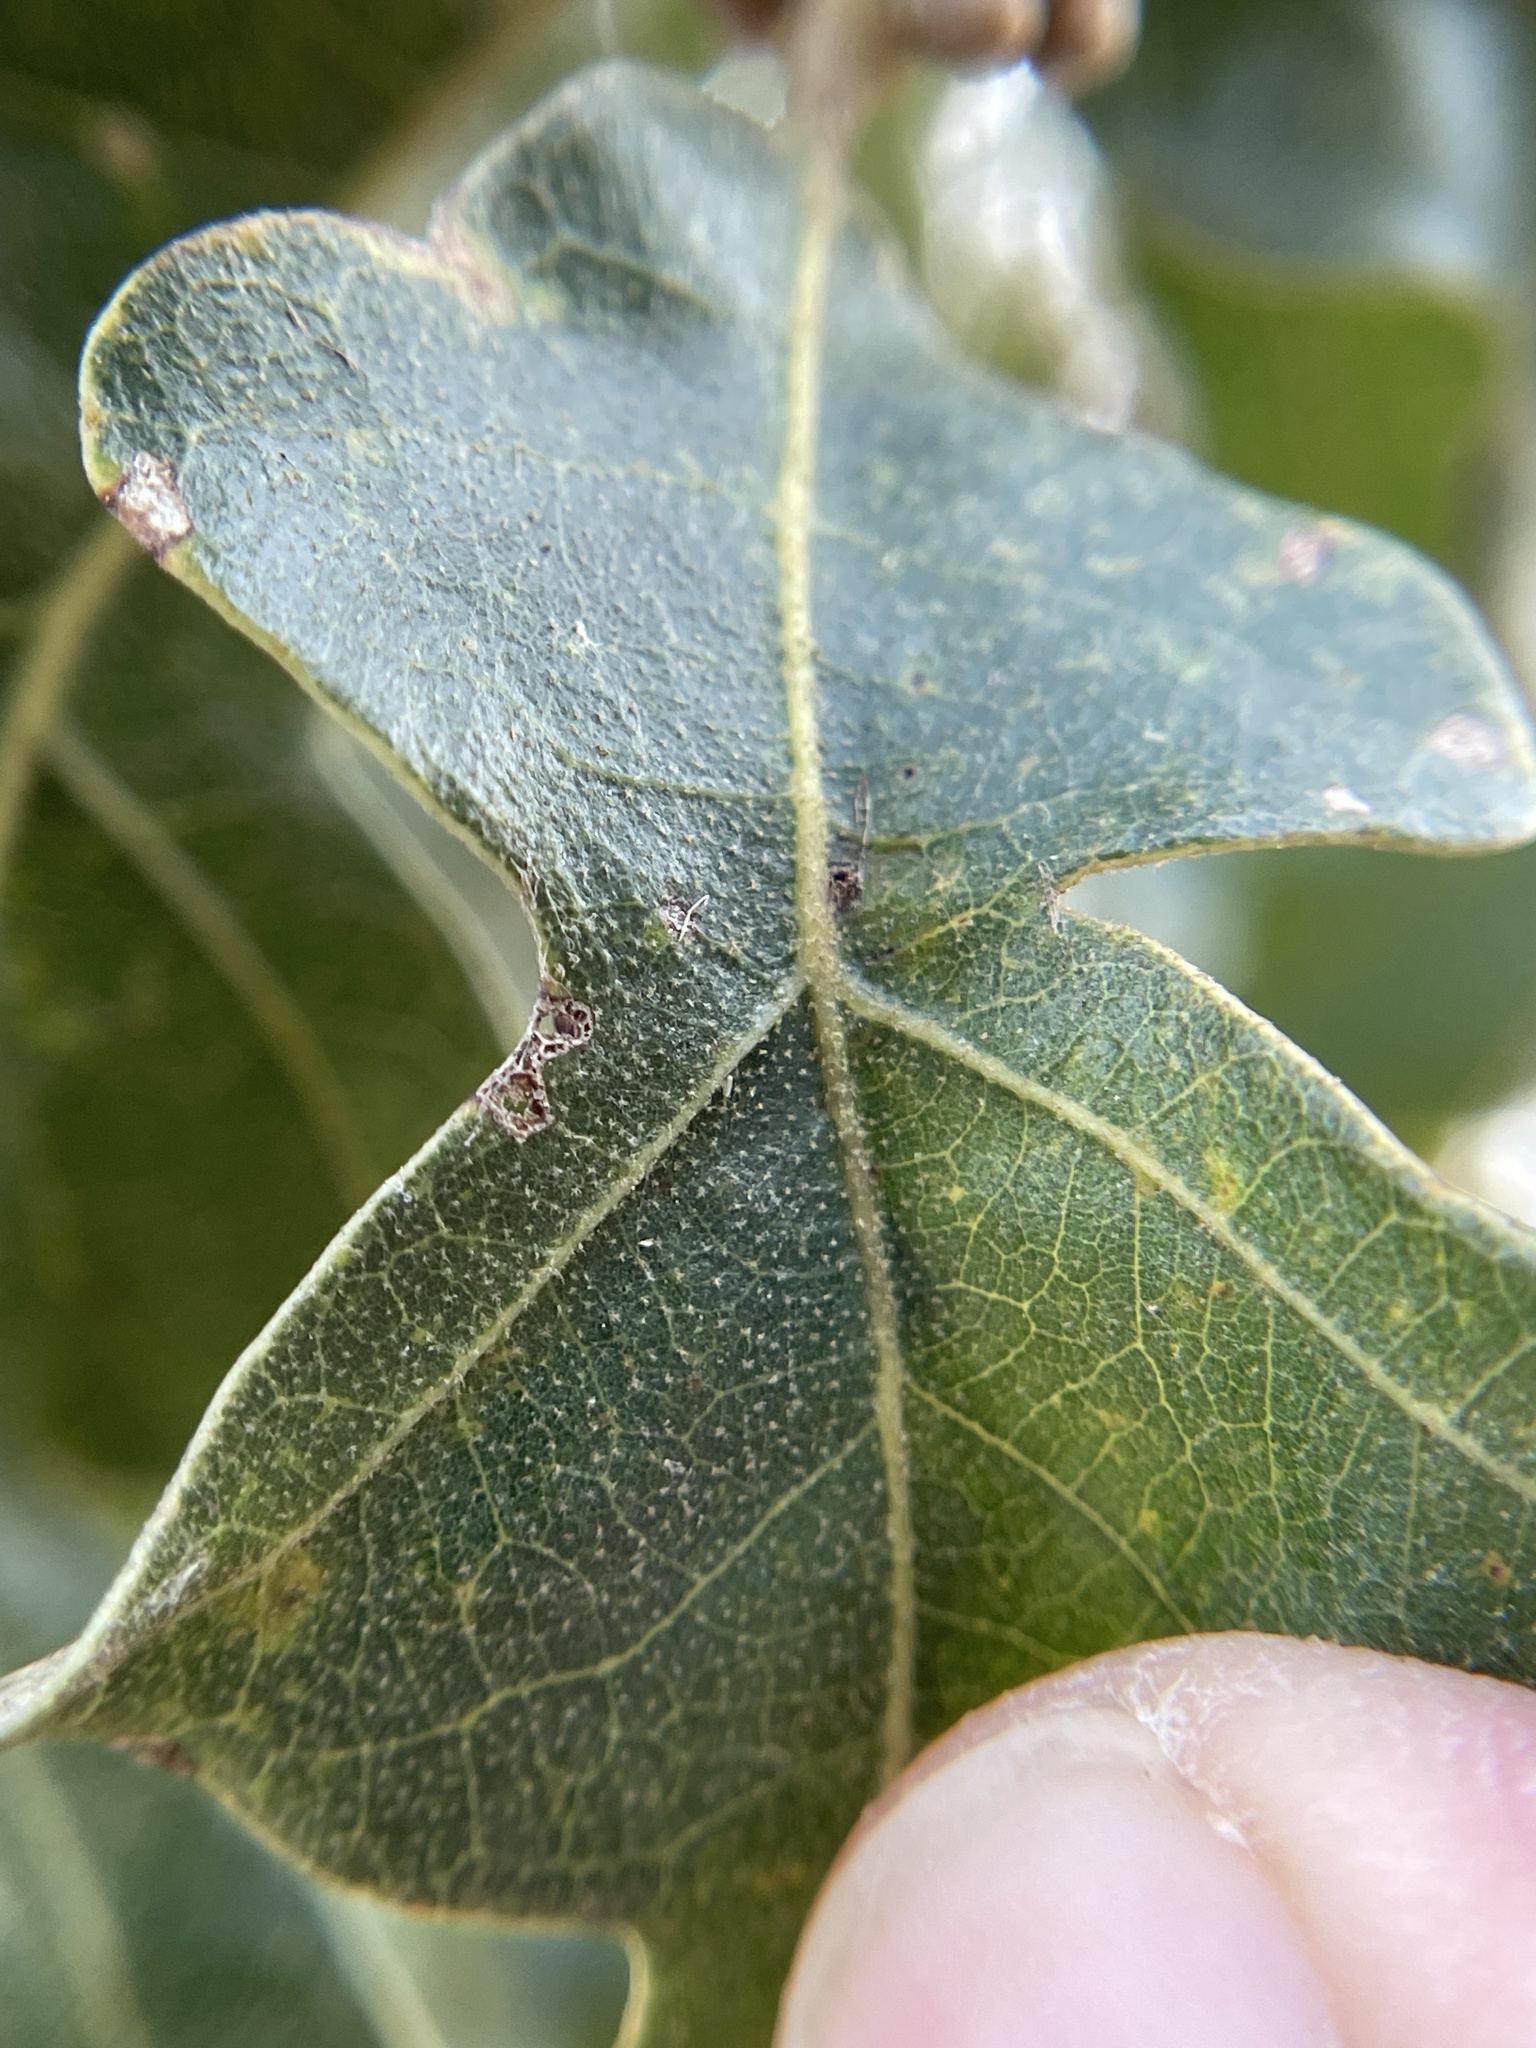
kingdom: Animalia
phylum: Arthropoda
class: Insecta
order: Hymenoptera
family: Cynipidae
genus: Andricus
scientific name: Andricus lustrans
